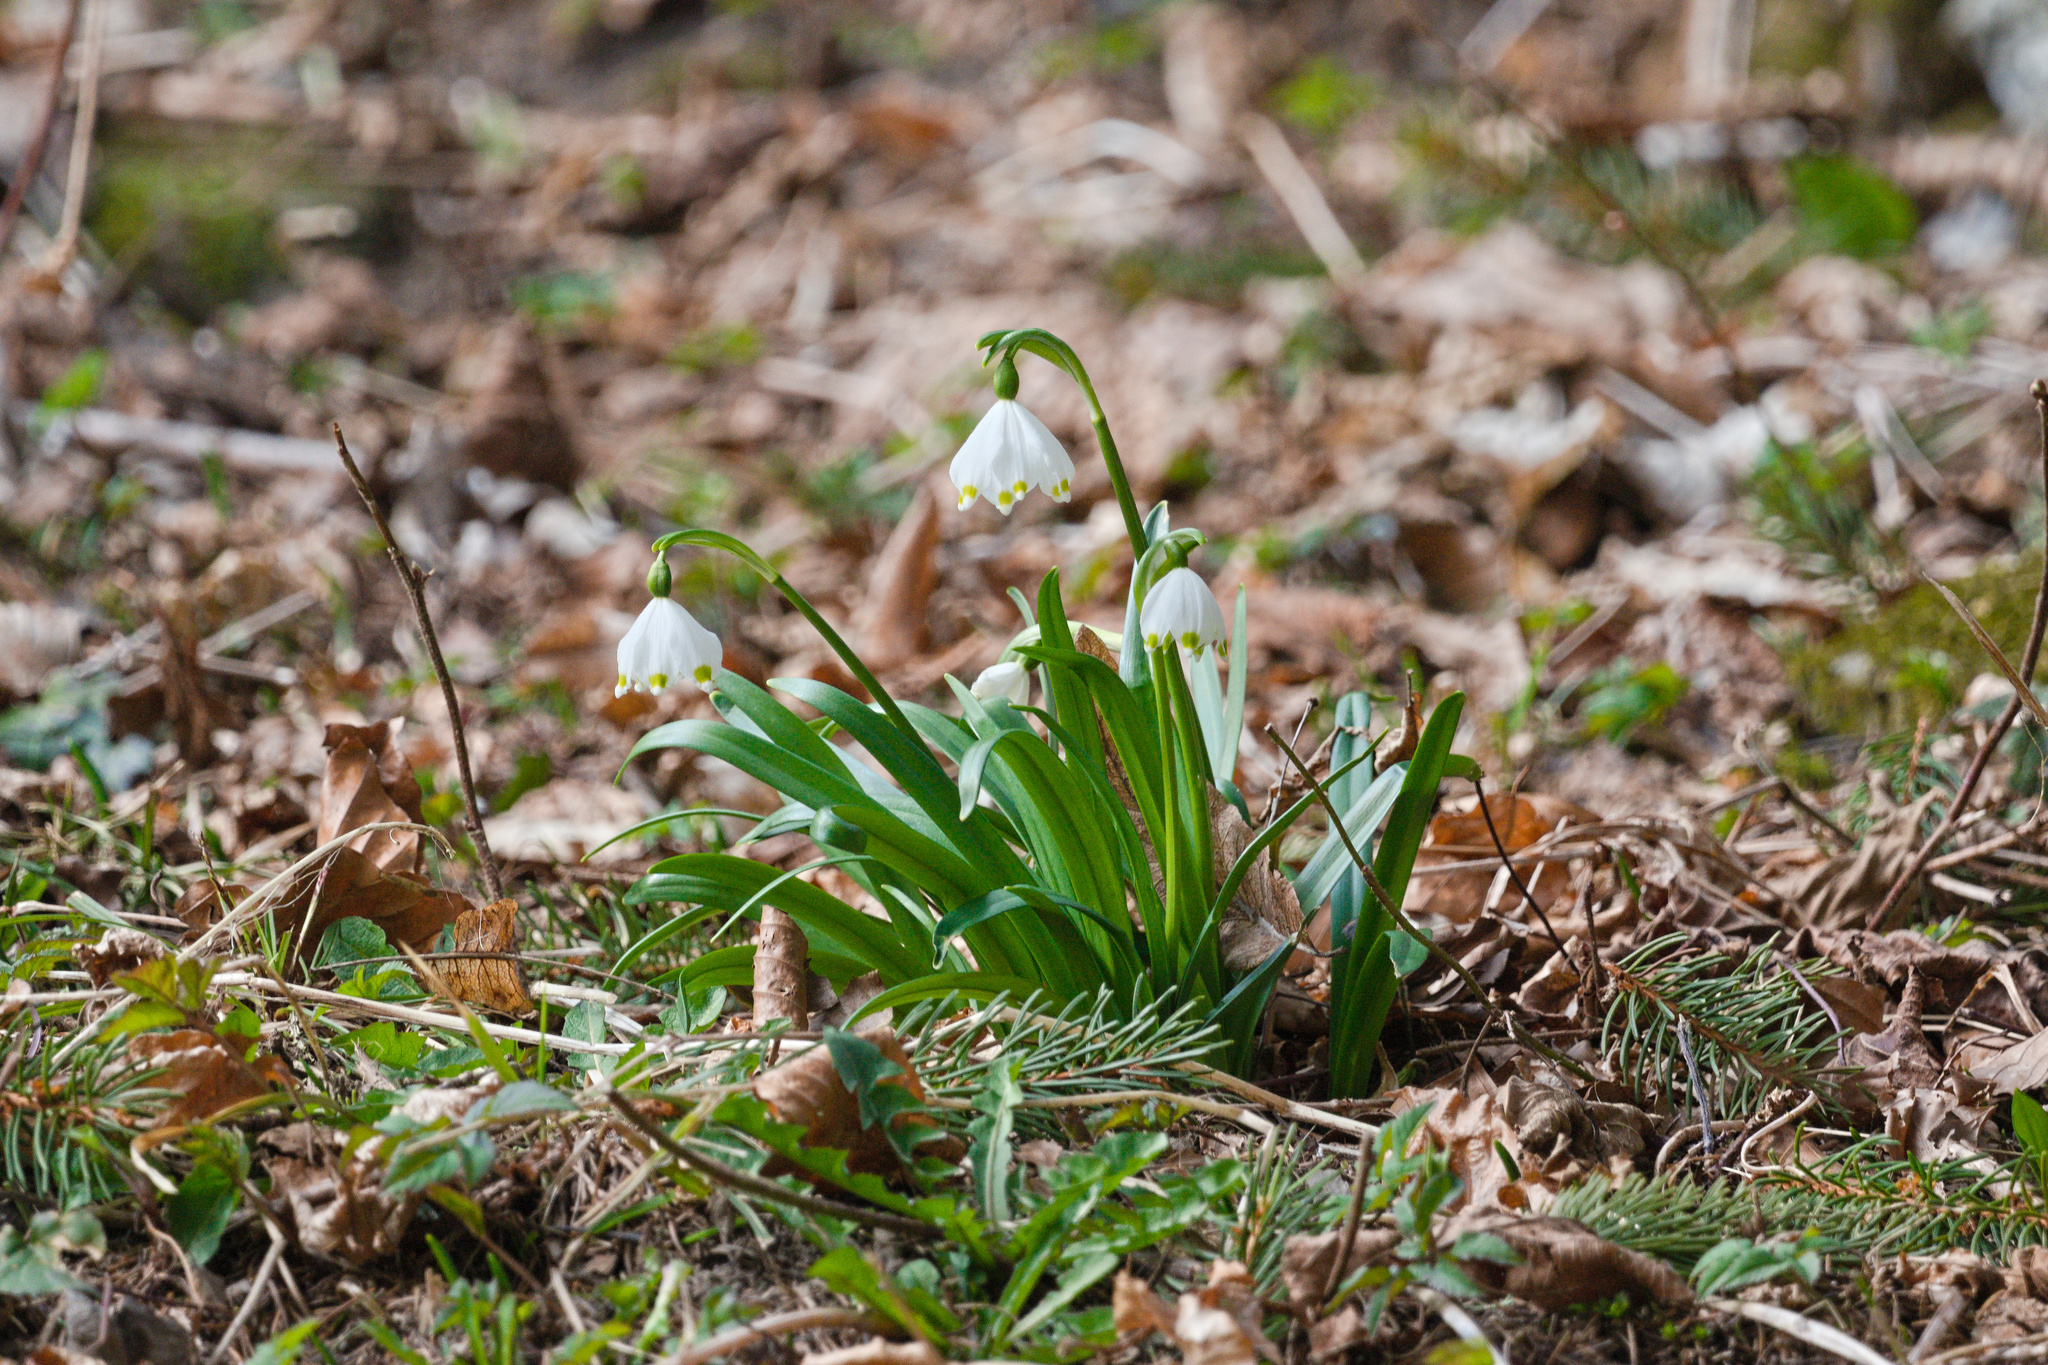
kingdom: Plantae
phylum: Tracheophyta
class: Liliopsida
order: Asparagales
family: Amaryllidaceae
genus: Leucojum
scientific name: Leucojum vernum
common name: Spring snowflake
